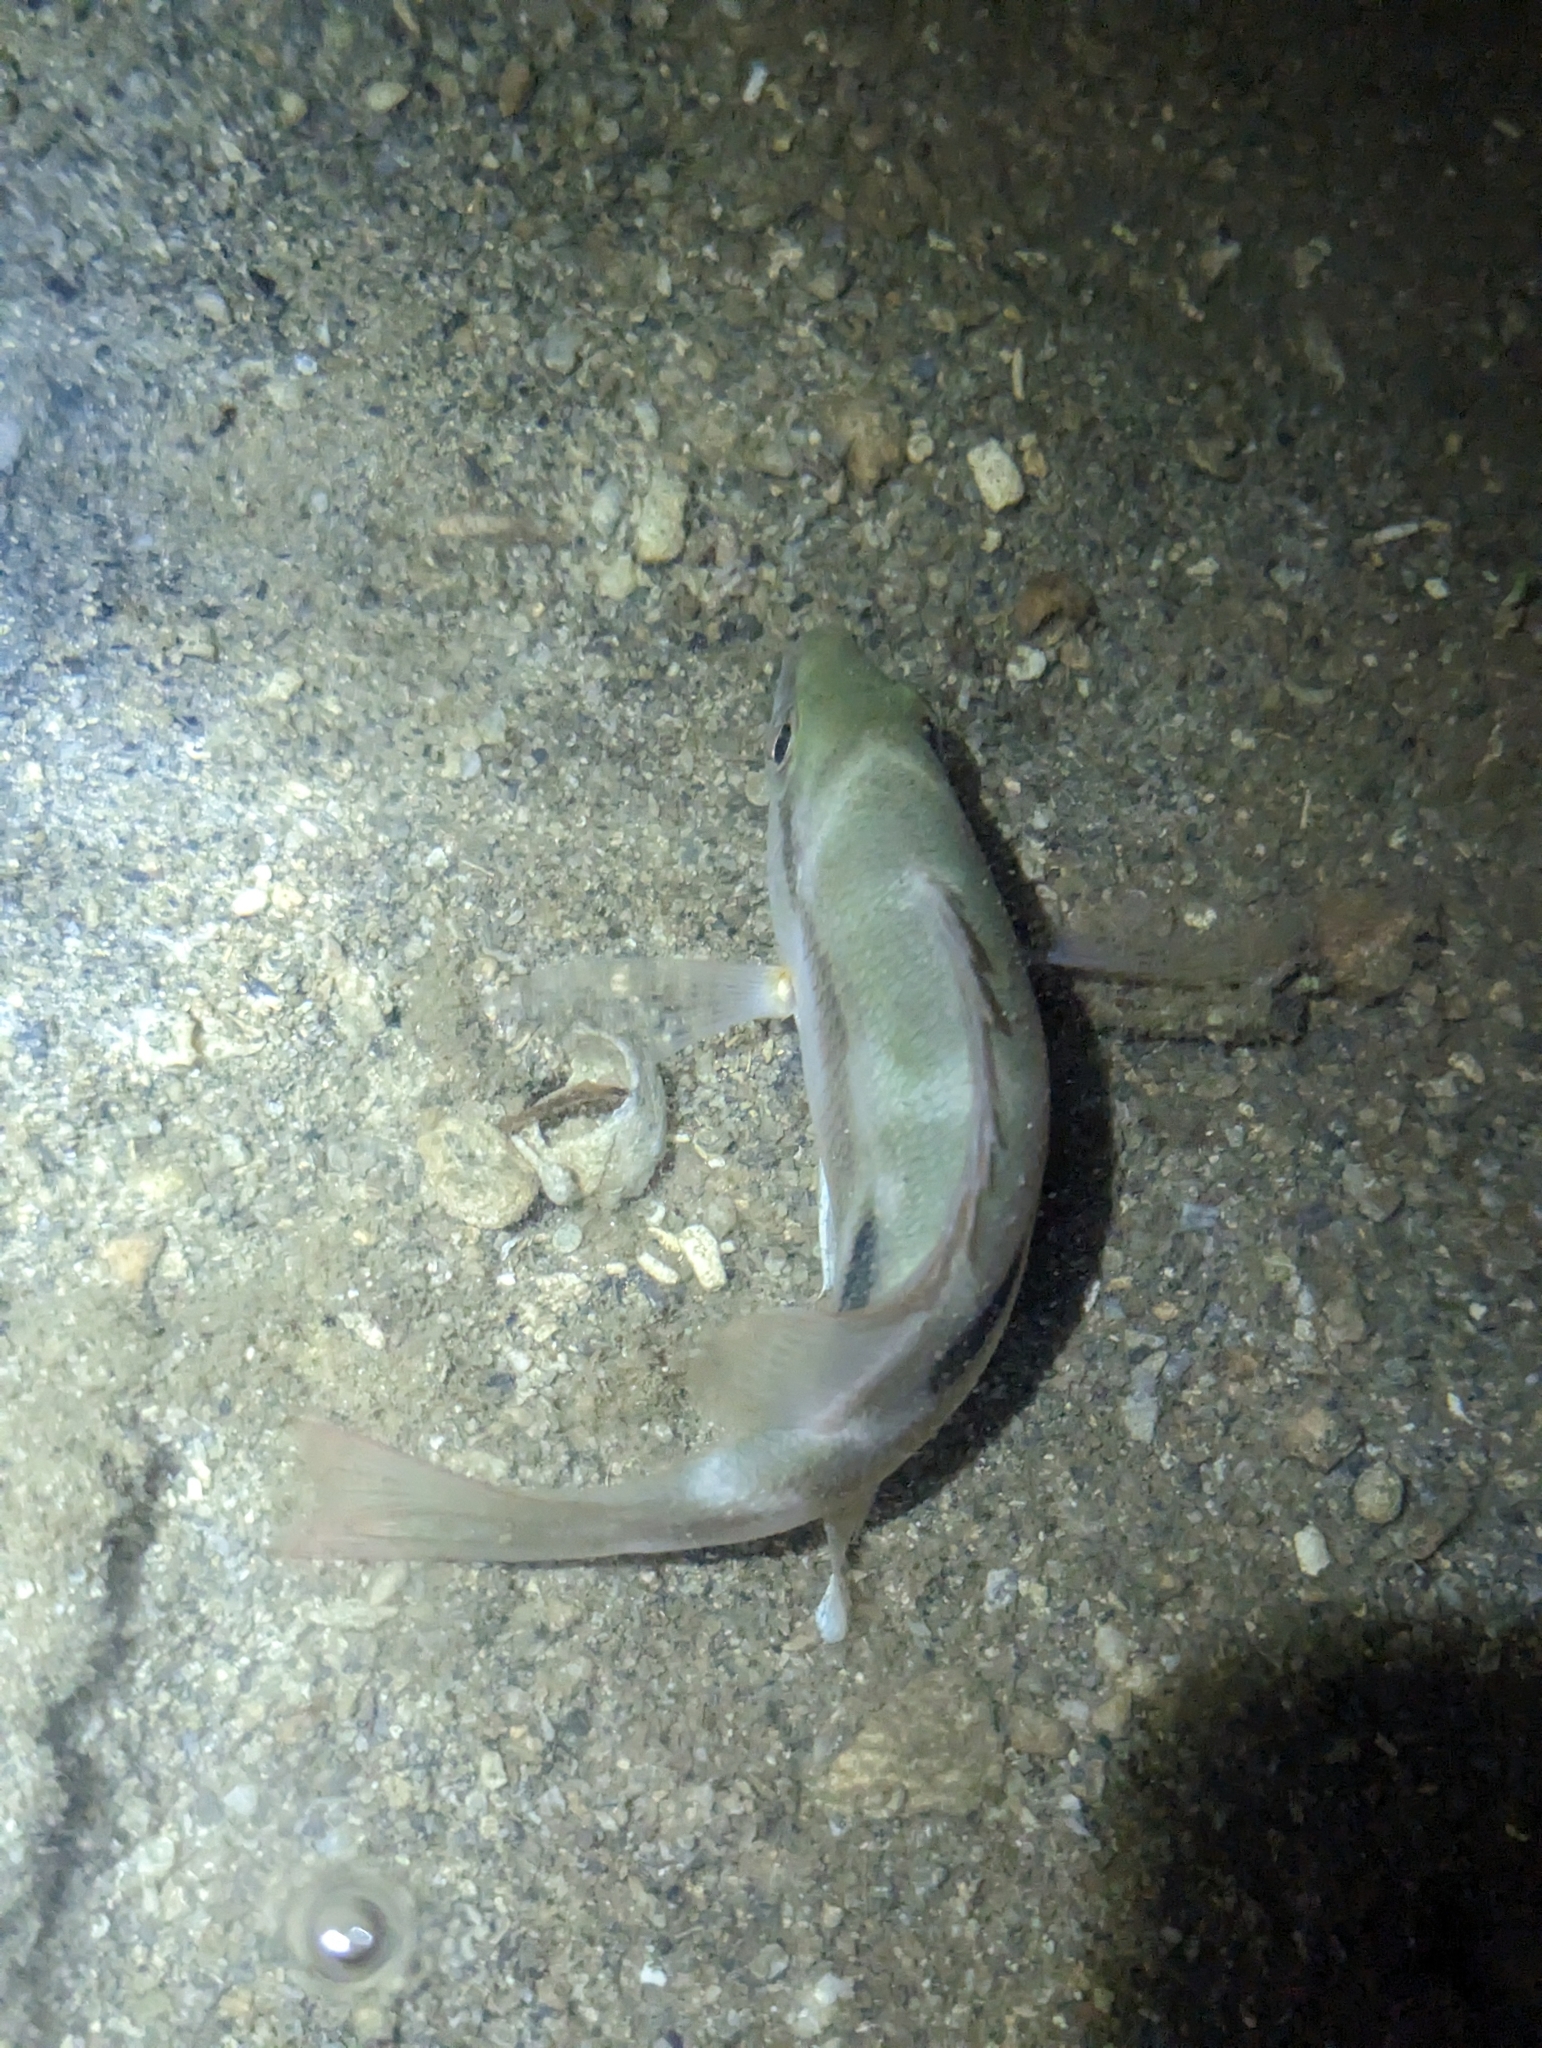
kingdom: Animalia
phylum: Chordata
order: Tetraodontiformes
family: Tetraodontidae
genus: Arothron
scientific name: Arothron manilensis
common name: Narrow-lined puffer
